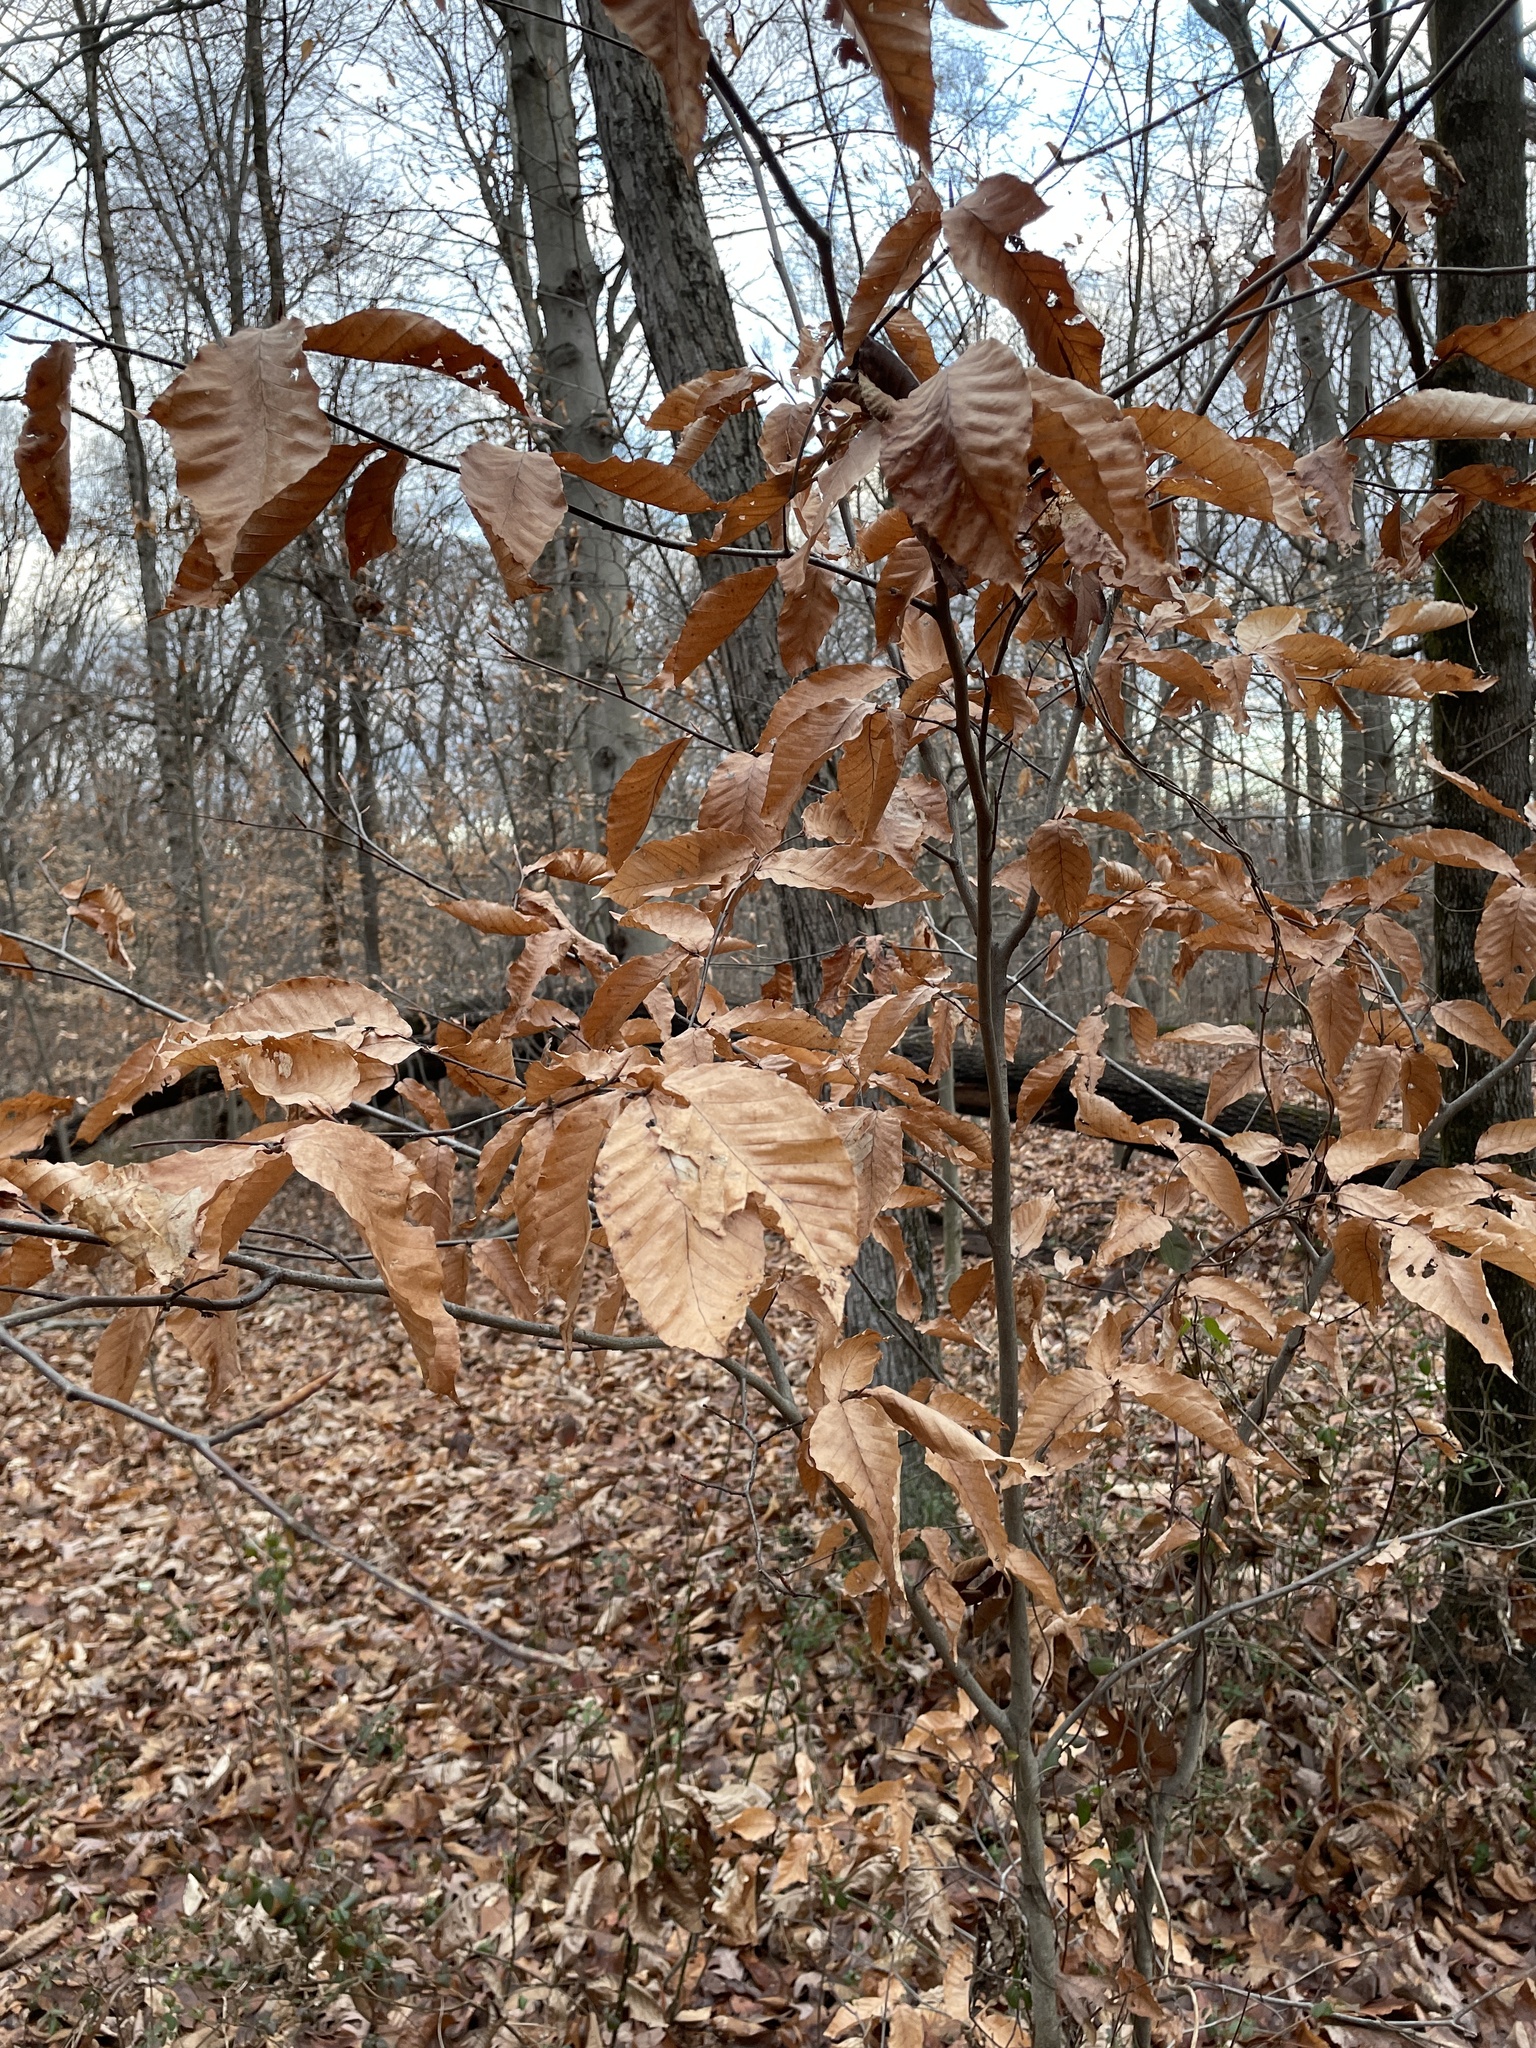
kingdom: Plantae
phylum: Tracheophyta
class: Magnoliopsida
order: Fagales
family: Fagaceae
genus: Fagus
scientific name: Fagus grandifolia
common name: American beech
